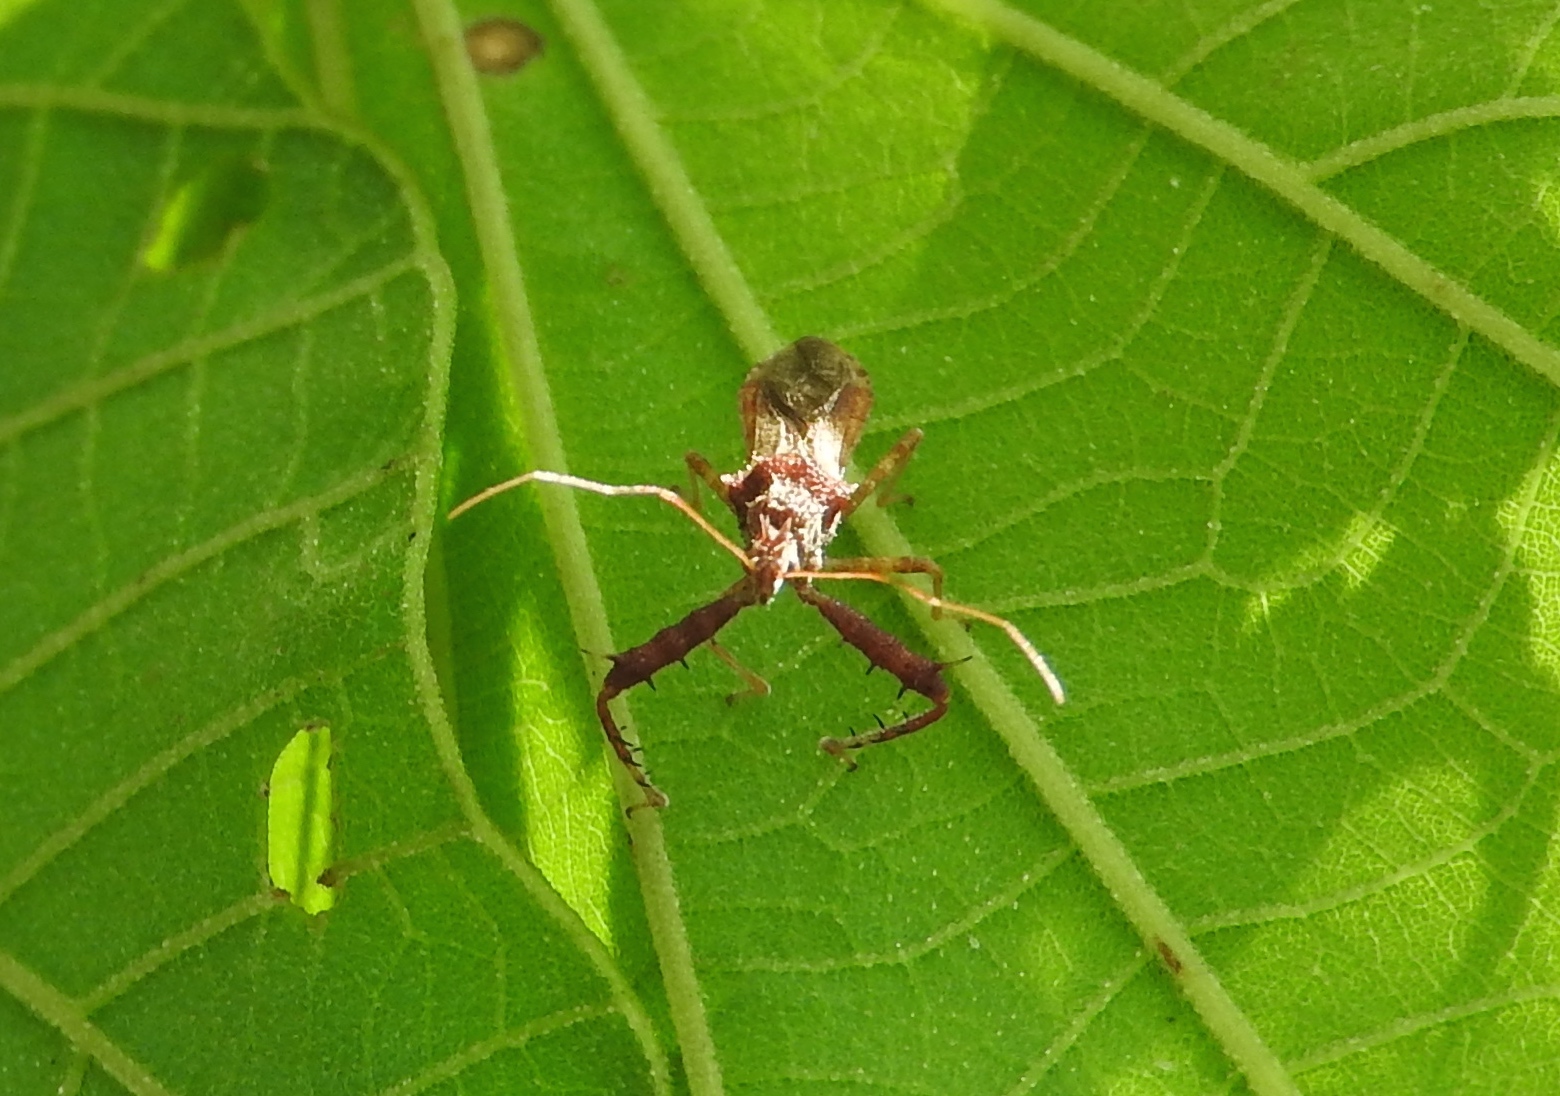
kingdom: Animalia
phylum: Arthropoda
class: Insecta
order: Hemiptera
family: Reduviidae
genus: Sinea
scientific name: Sinea
